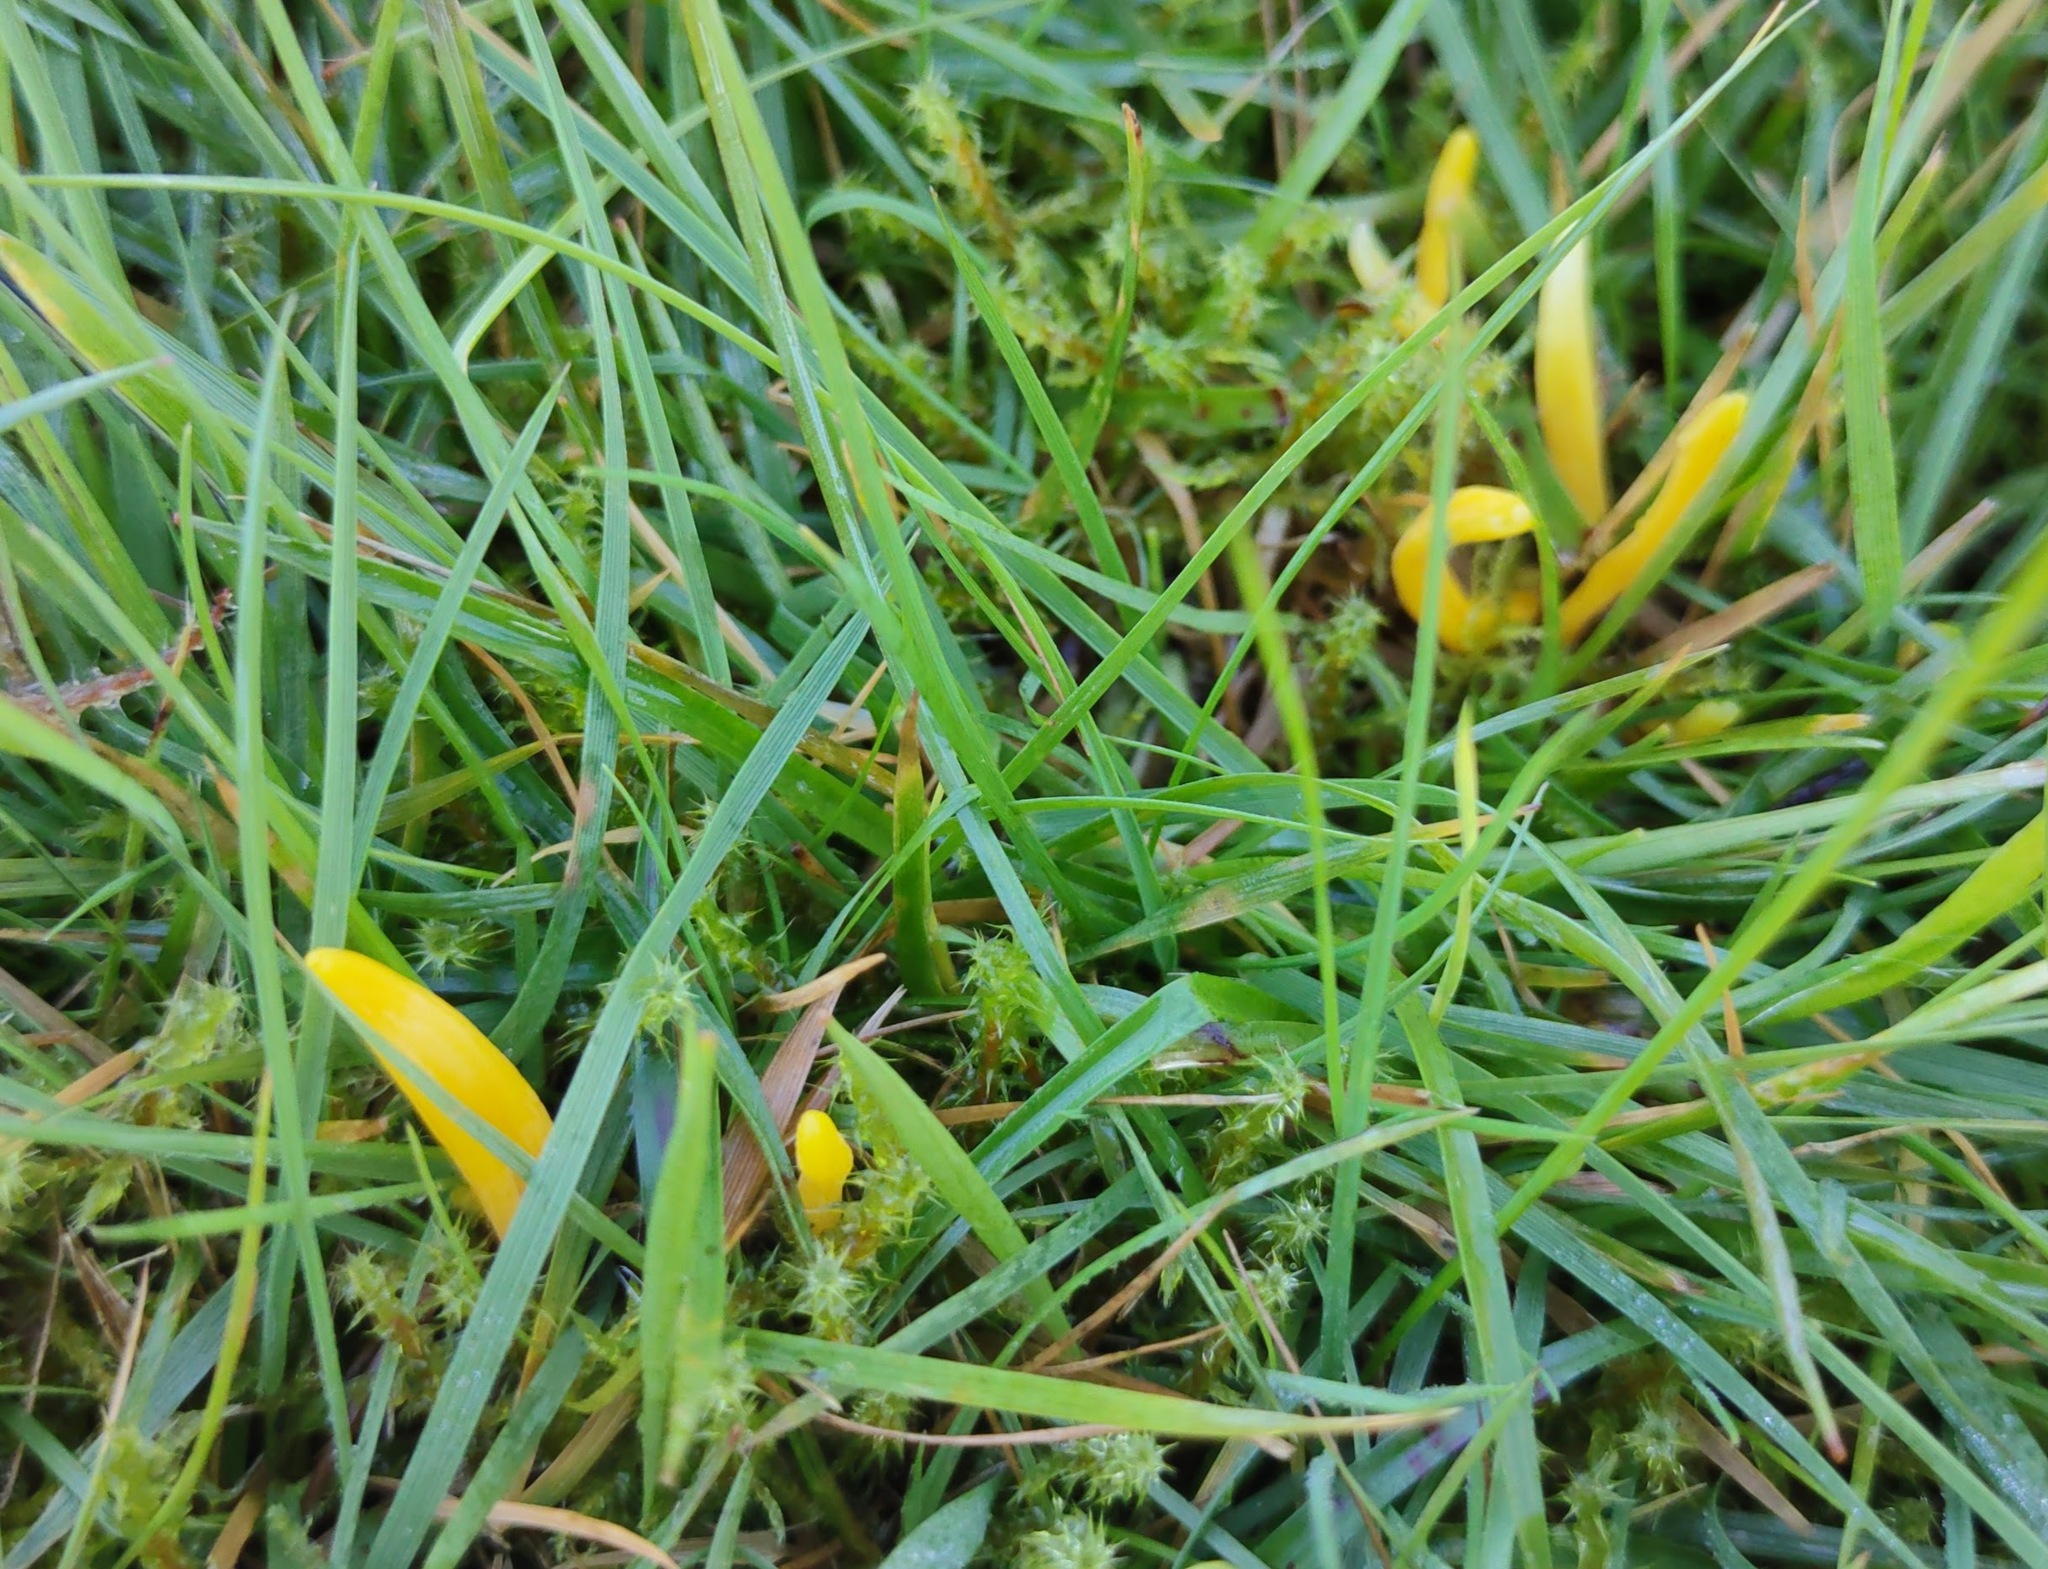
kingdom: Fungi
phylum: Basidiomycota
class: Agaricomycetes
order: Agaricales
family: Clavariaceae
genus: Clavulinopsis
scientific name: Clavulinopsis helvola
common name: Yellow club
